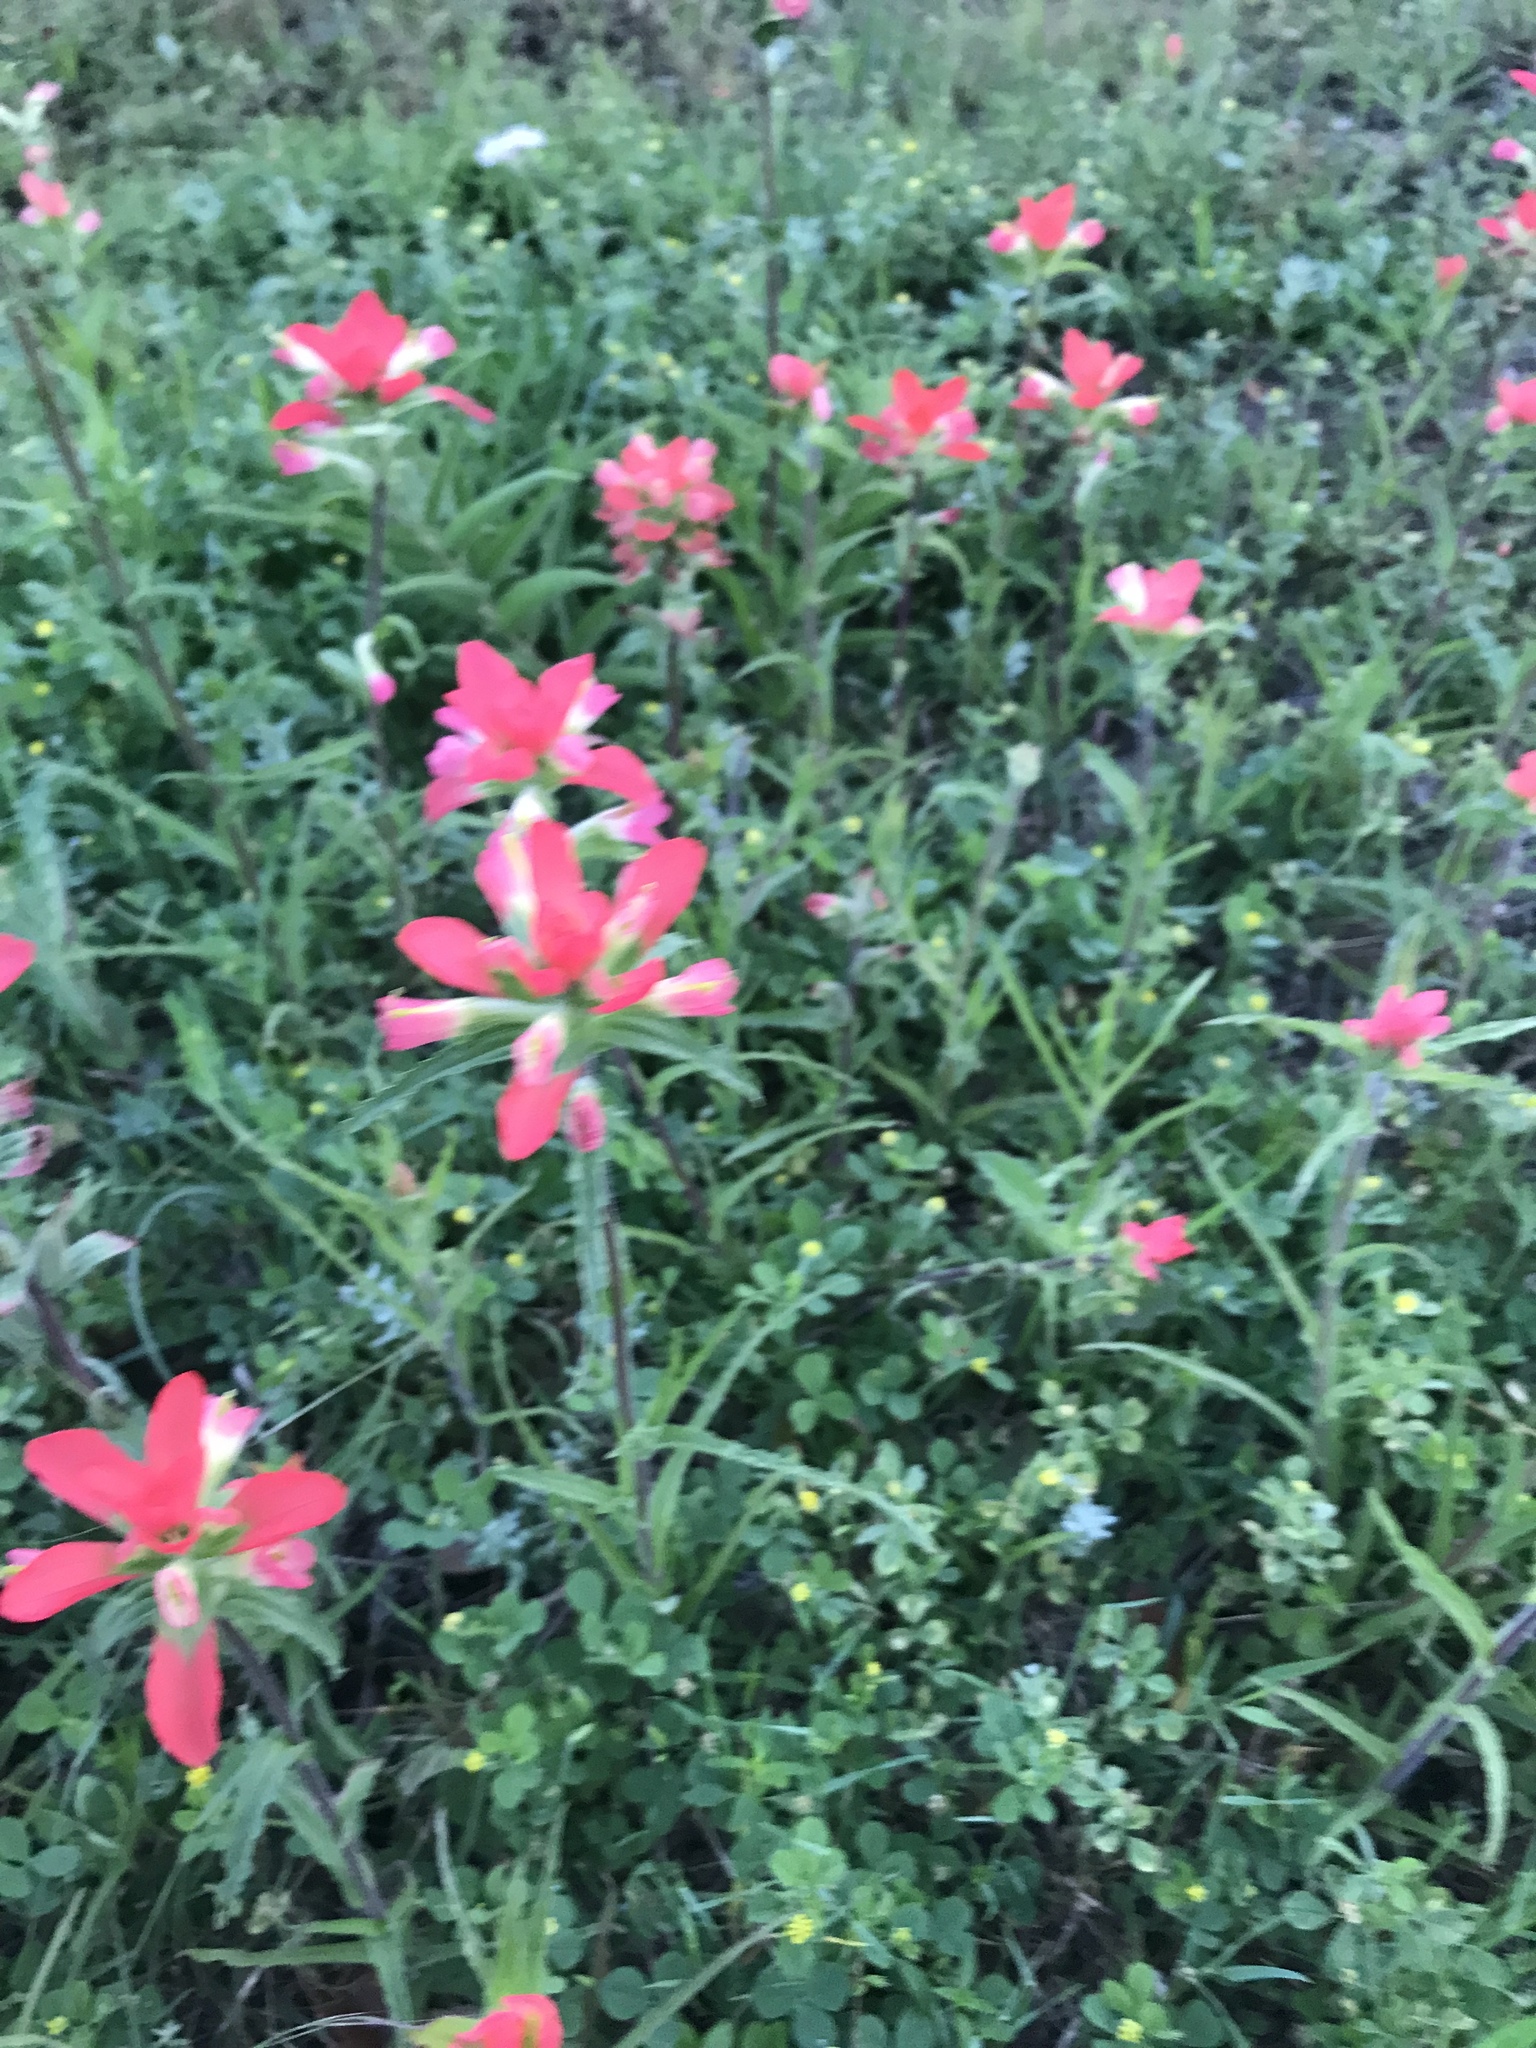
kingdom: Plantae
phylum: Tracheophyta
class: Magnoliopsida
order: Lamiales
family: Orobanchaceae
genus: Castilleja
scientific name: Castilleja indivisa
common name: Texas paintbrush
